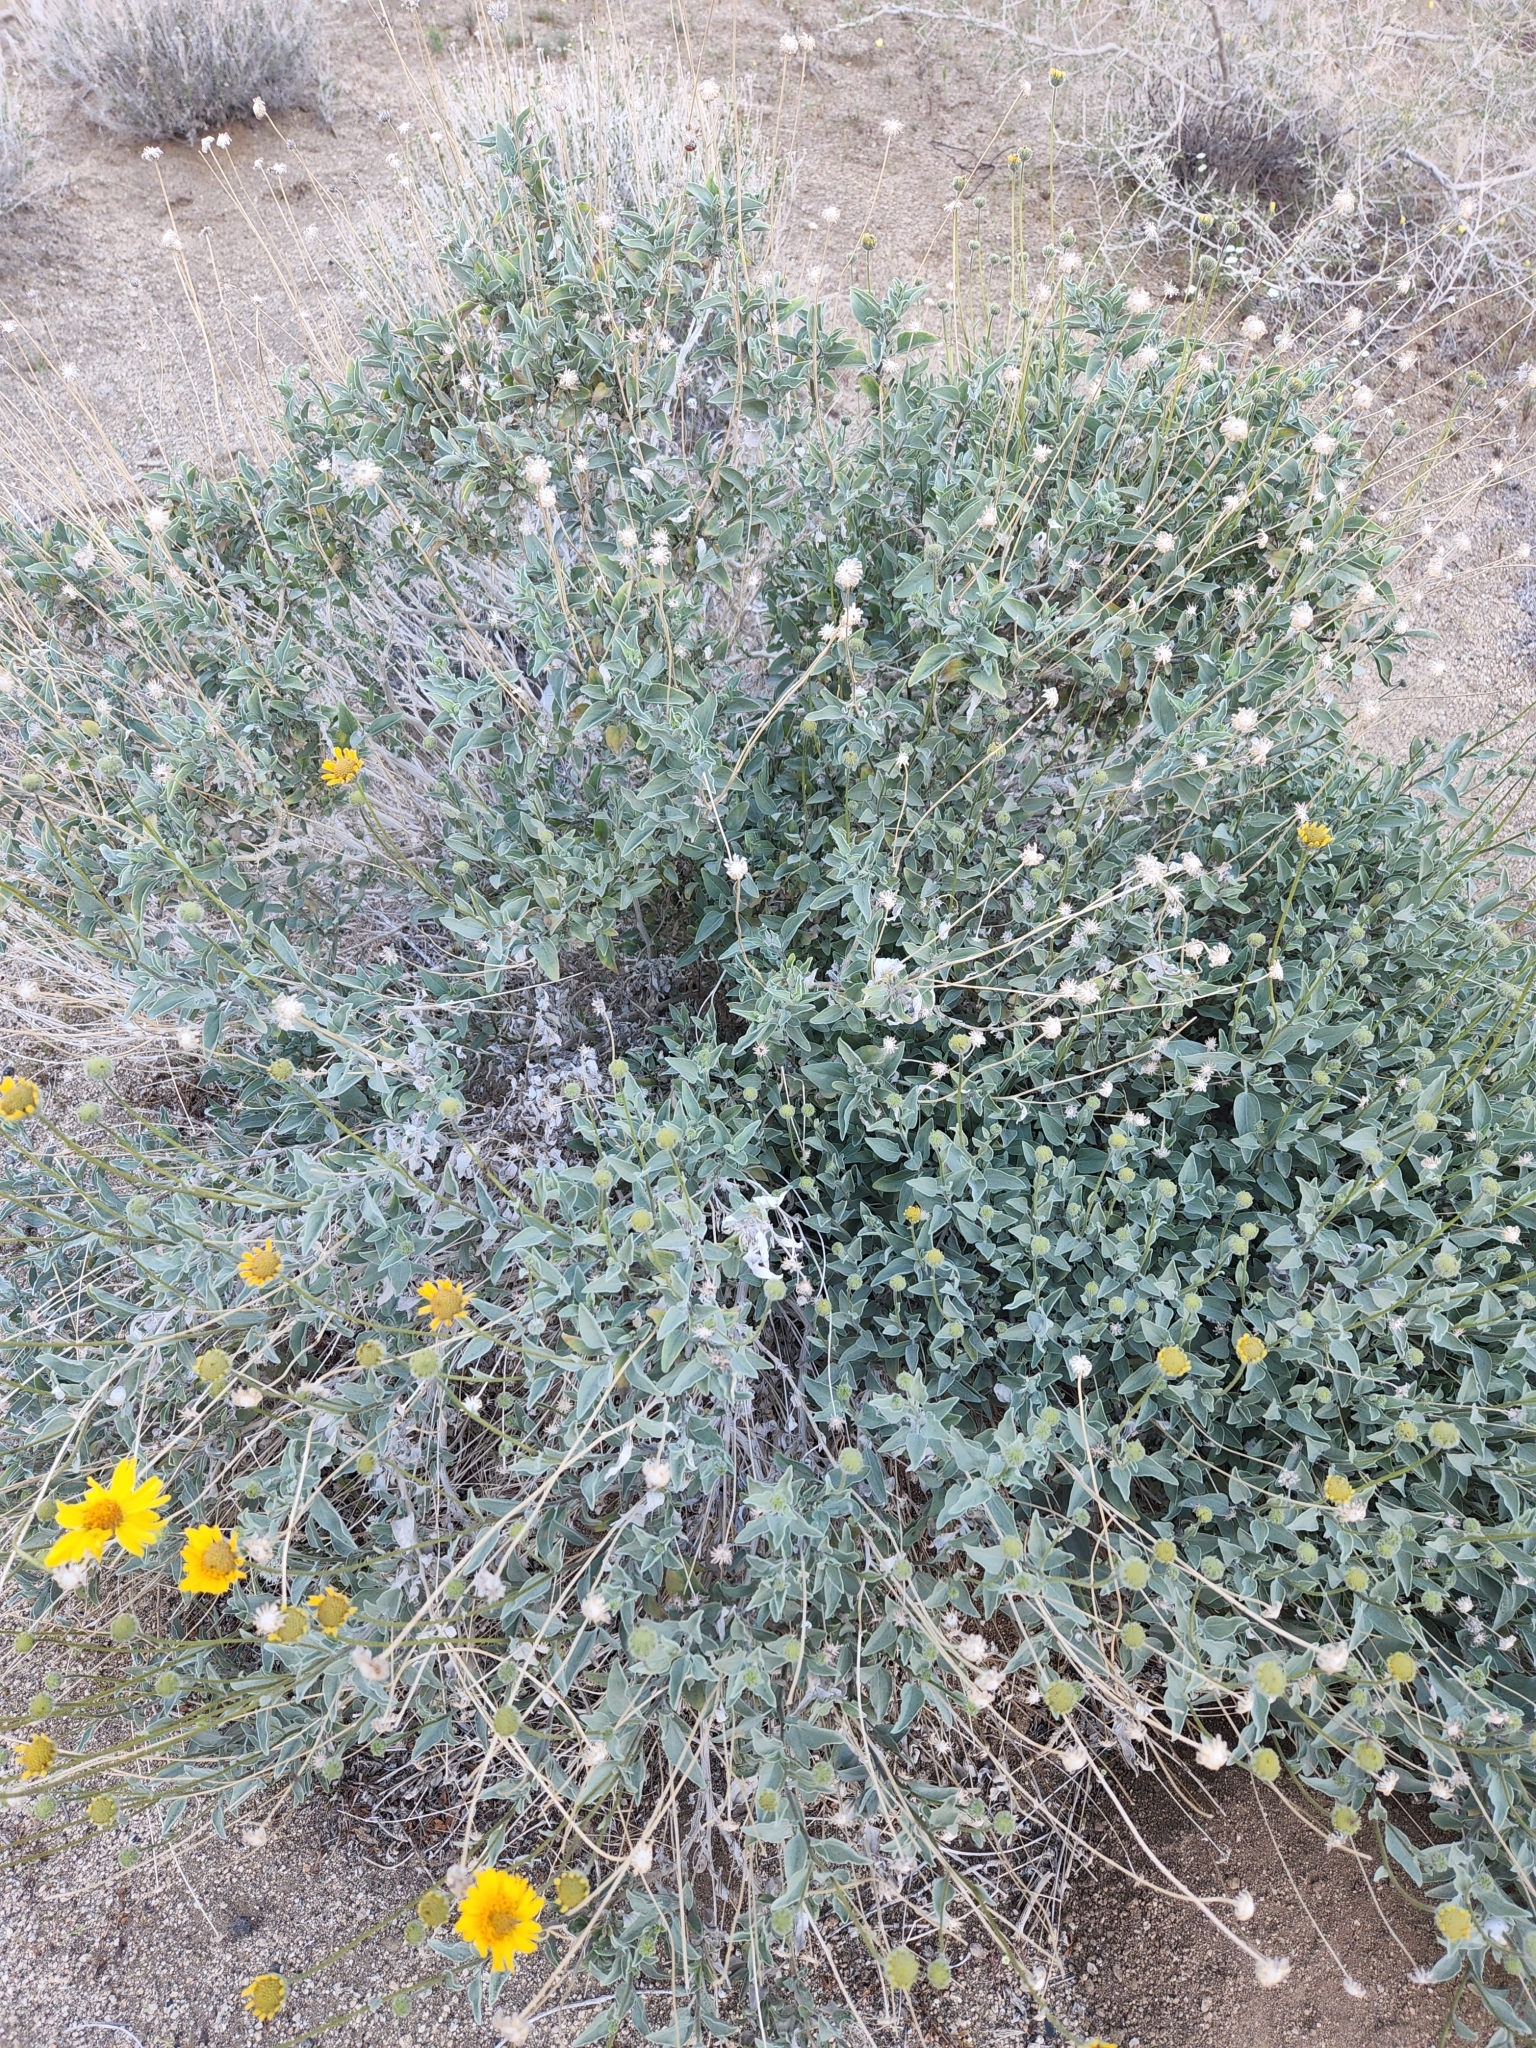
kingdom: Plantae
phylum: Tracheophyta
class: Magnoliopsida
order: Asterales
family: Asteraceae
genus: Encelia
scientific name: Encelia actoni
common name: Acton encelia
